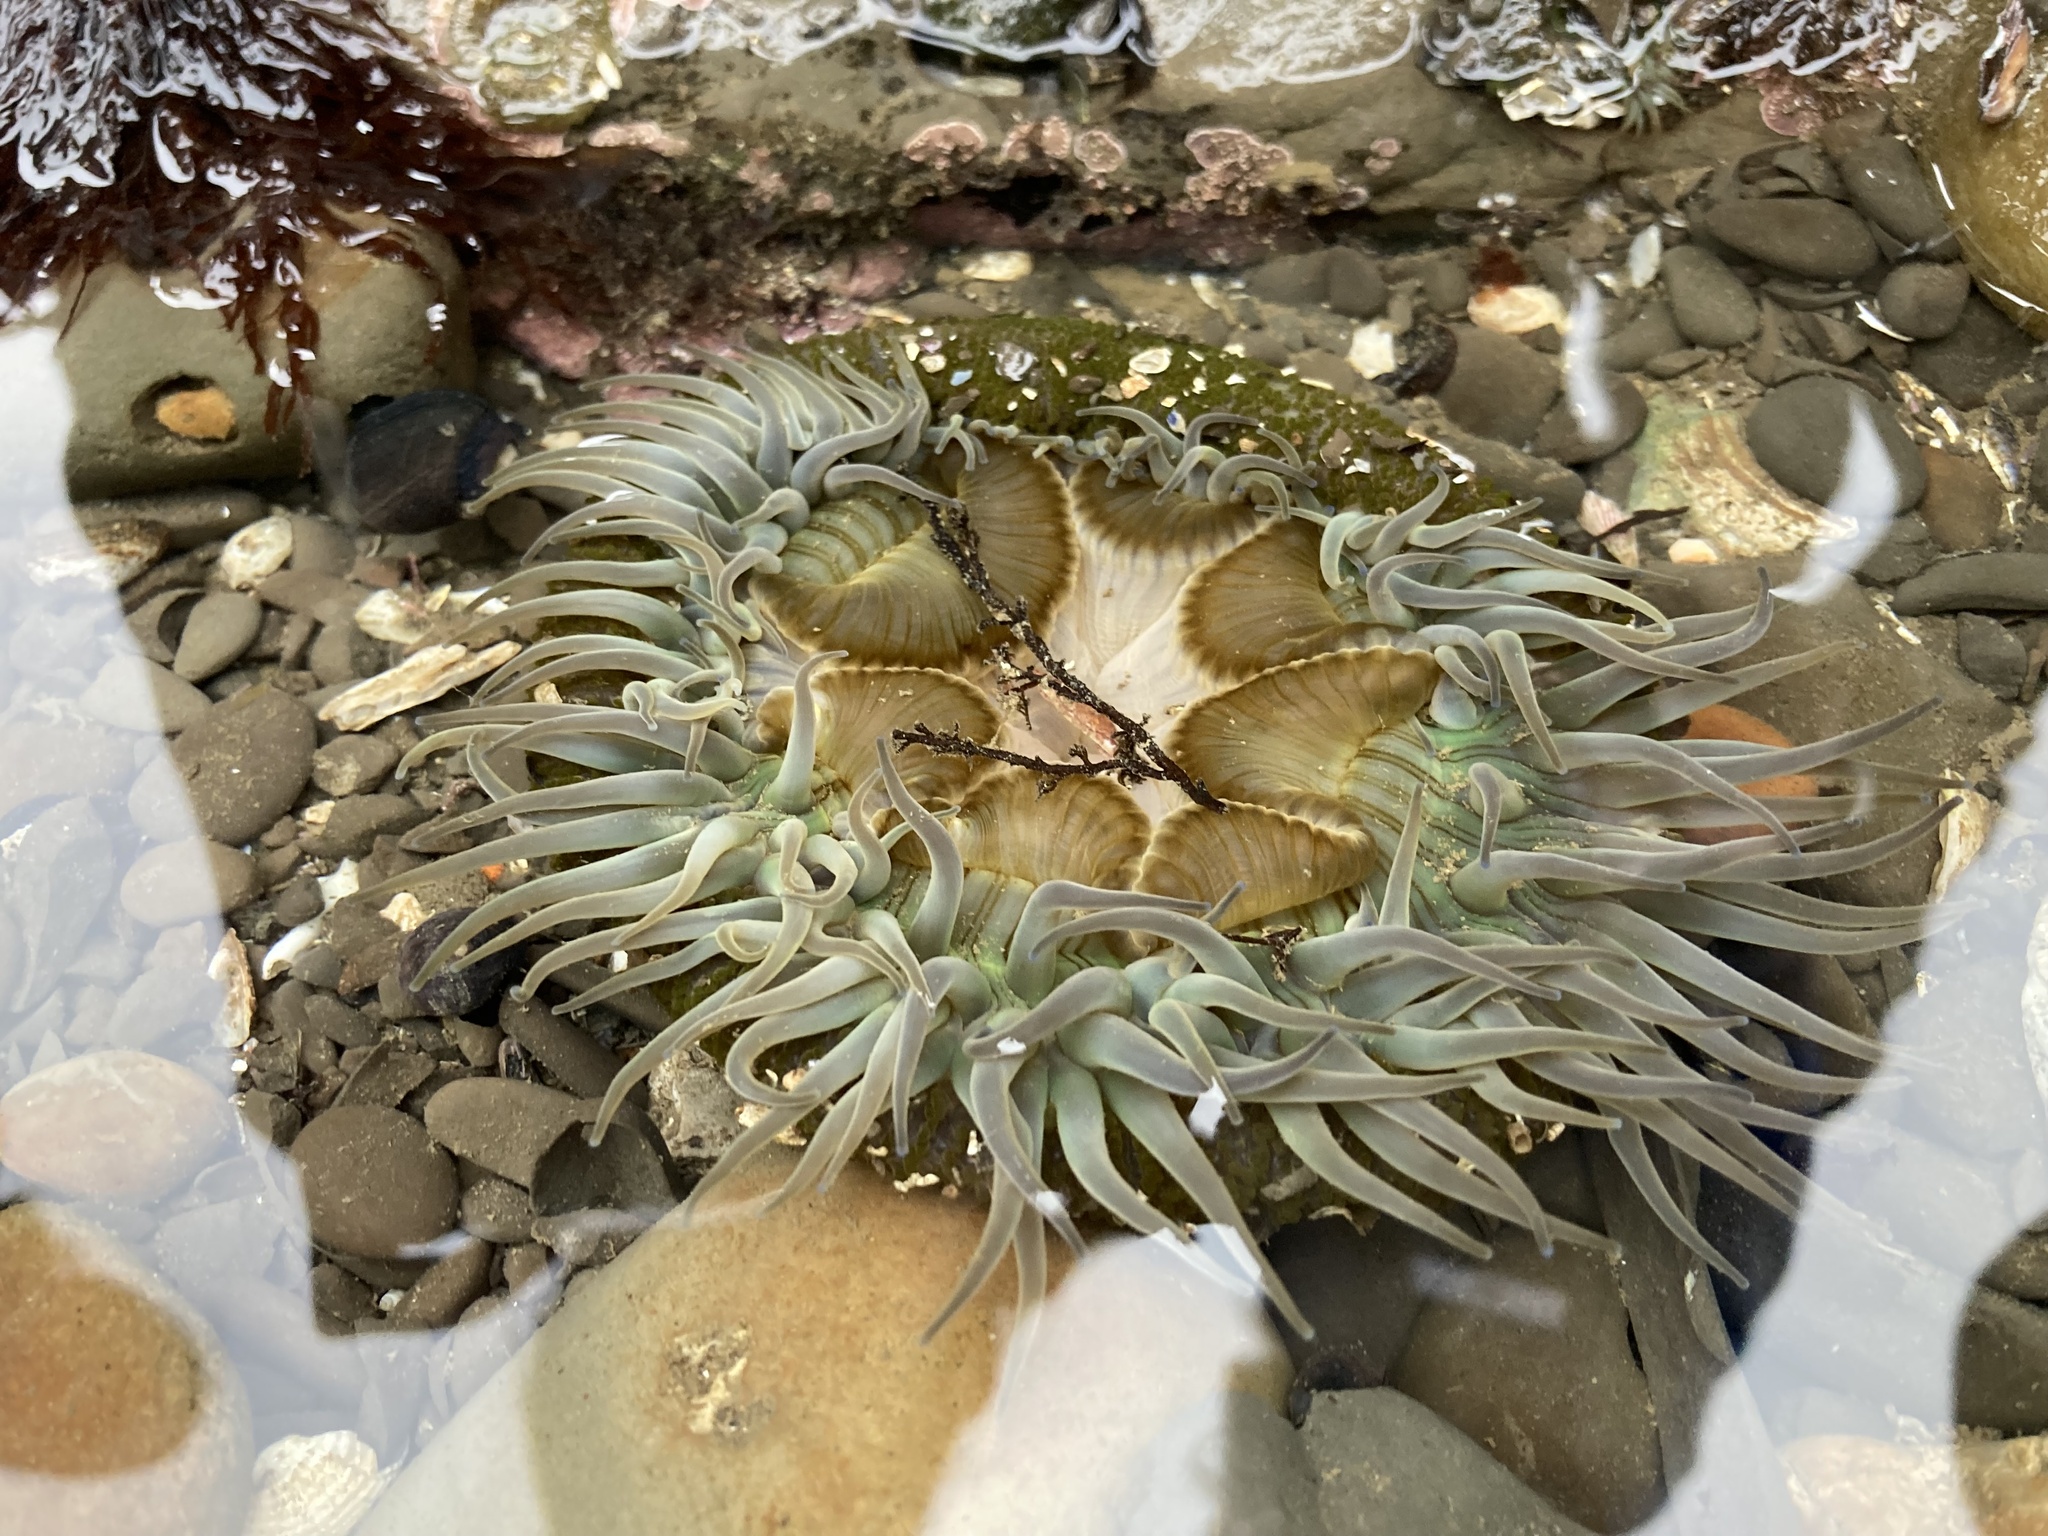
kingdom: Animalia
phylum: Cnidaria
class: Anthozoa
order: Actiniaria
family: Actiniidae
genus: Anthopleura
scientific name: Anthopleura sola
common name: Sun anemone
